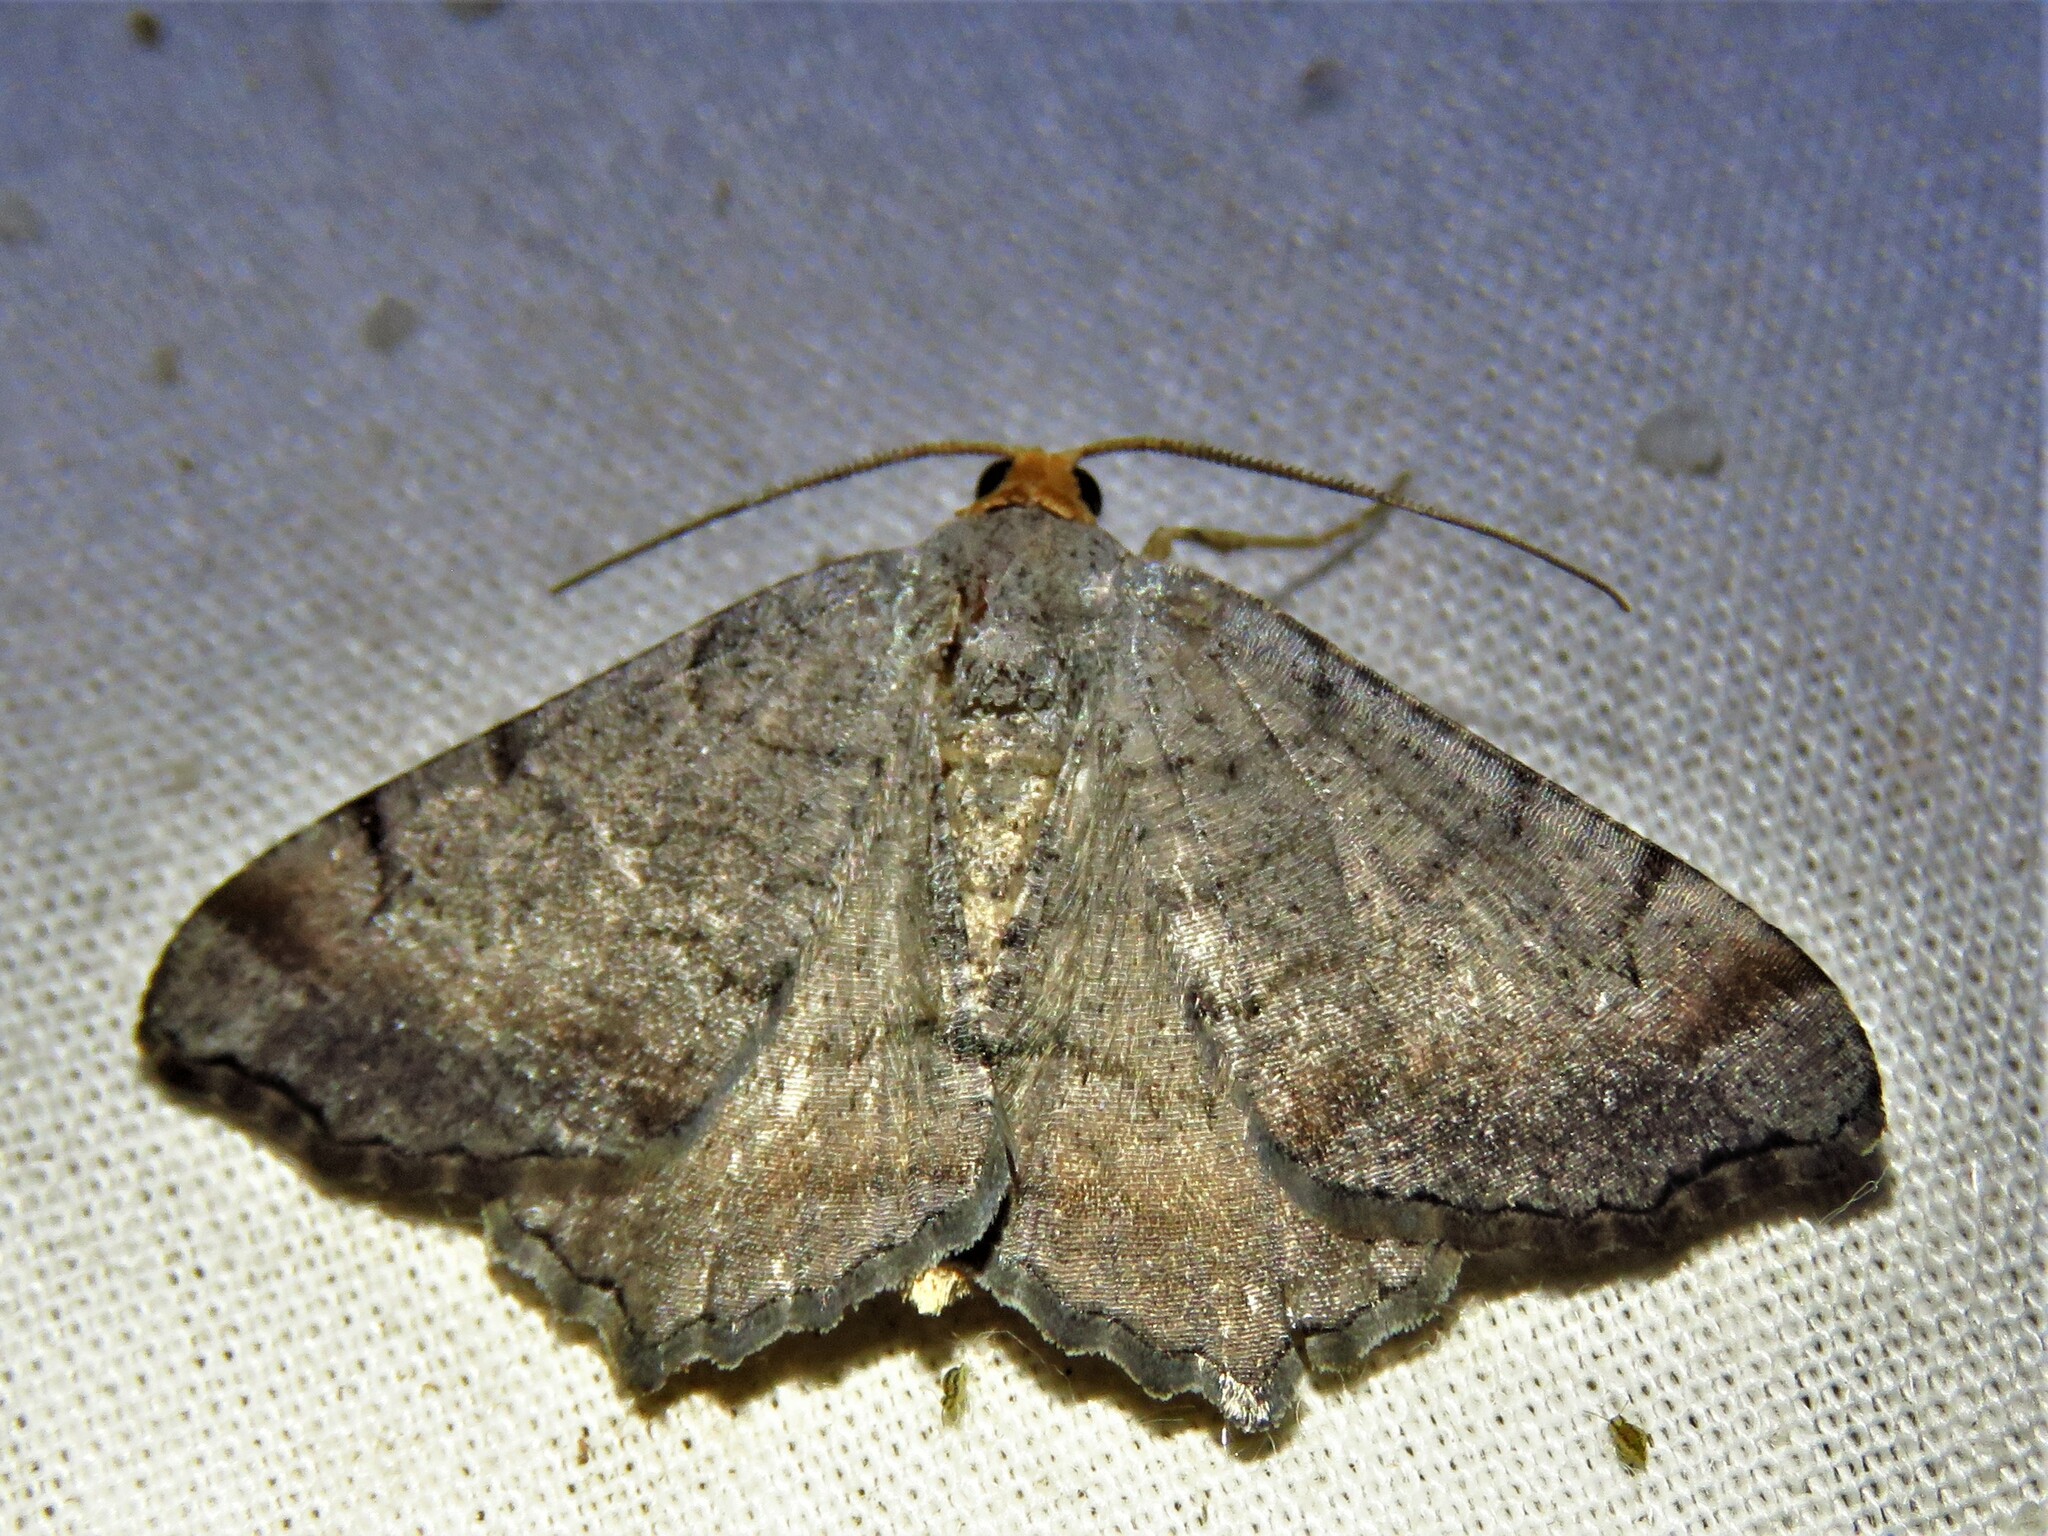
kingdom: Animalia
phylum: Arthropoda
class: Insecta
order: Lepidoptera
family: Geometridae
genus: Macaria
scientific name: Macaria transitaria
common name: Blurry chocolate angle
